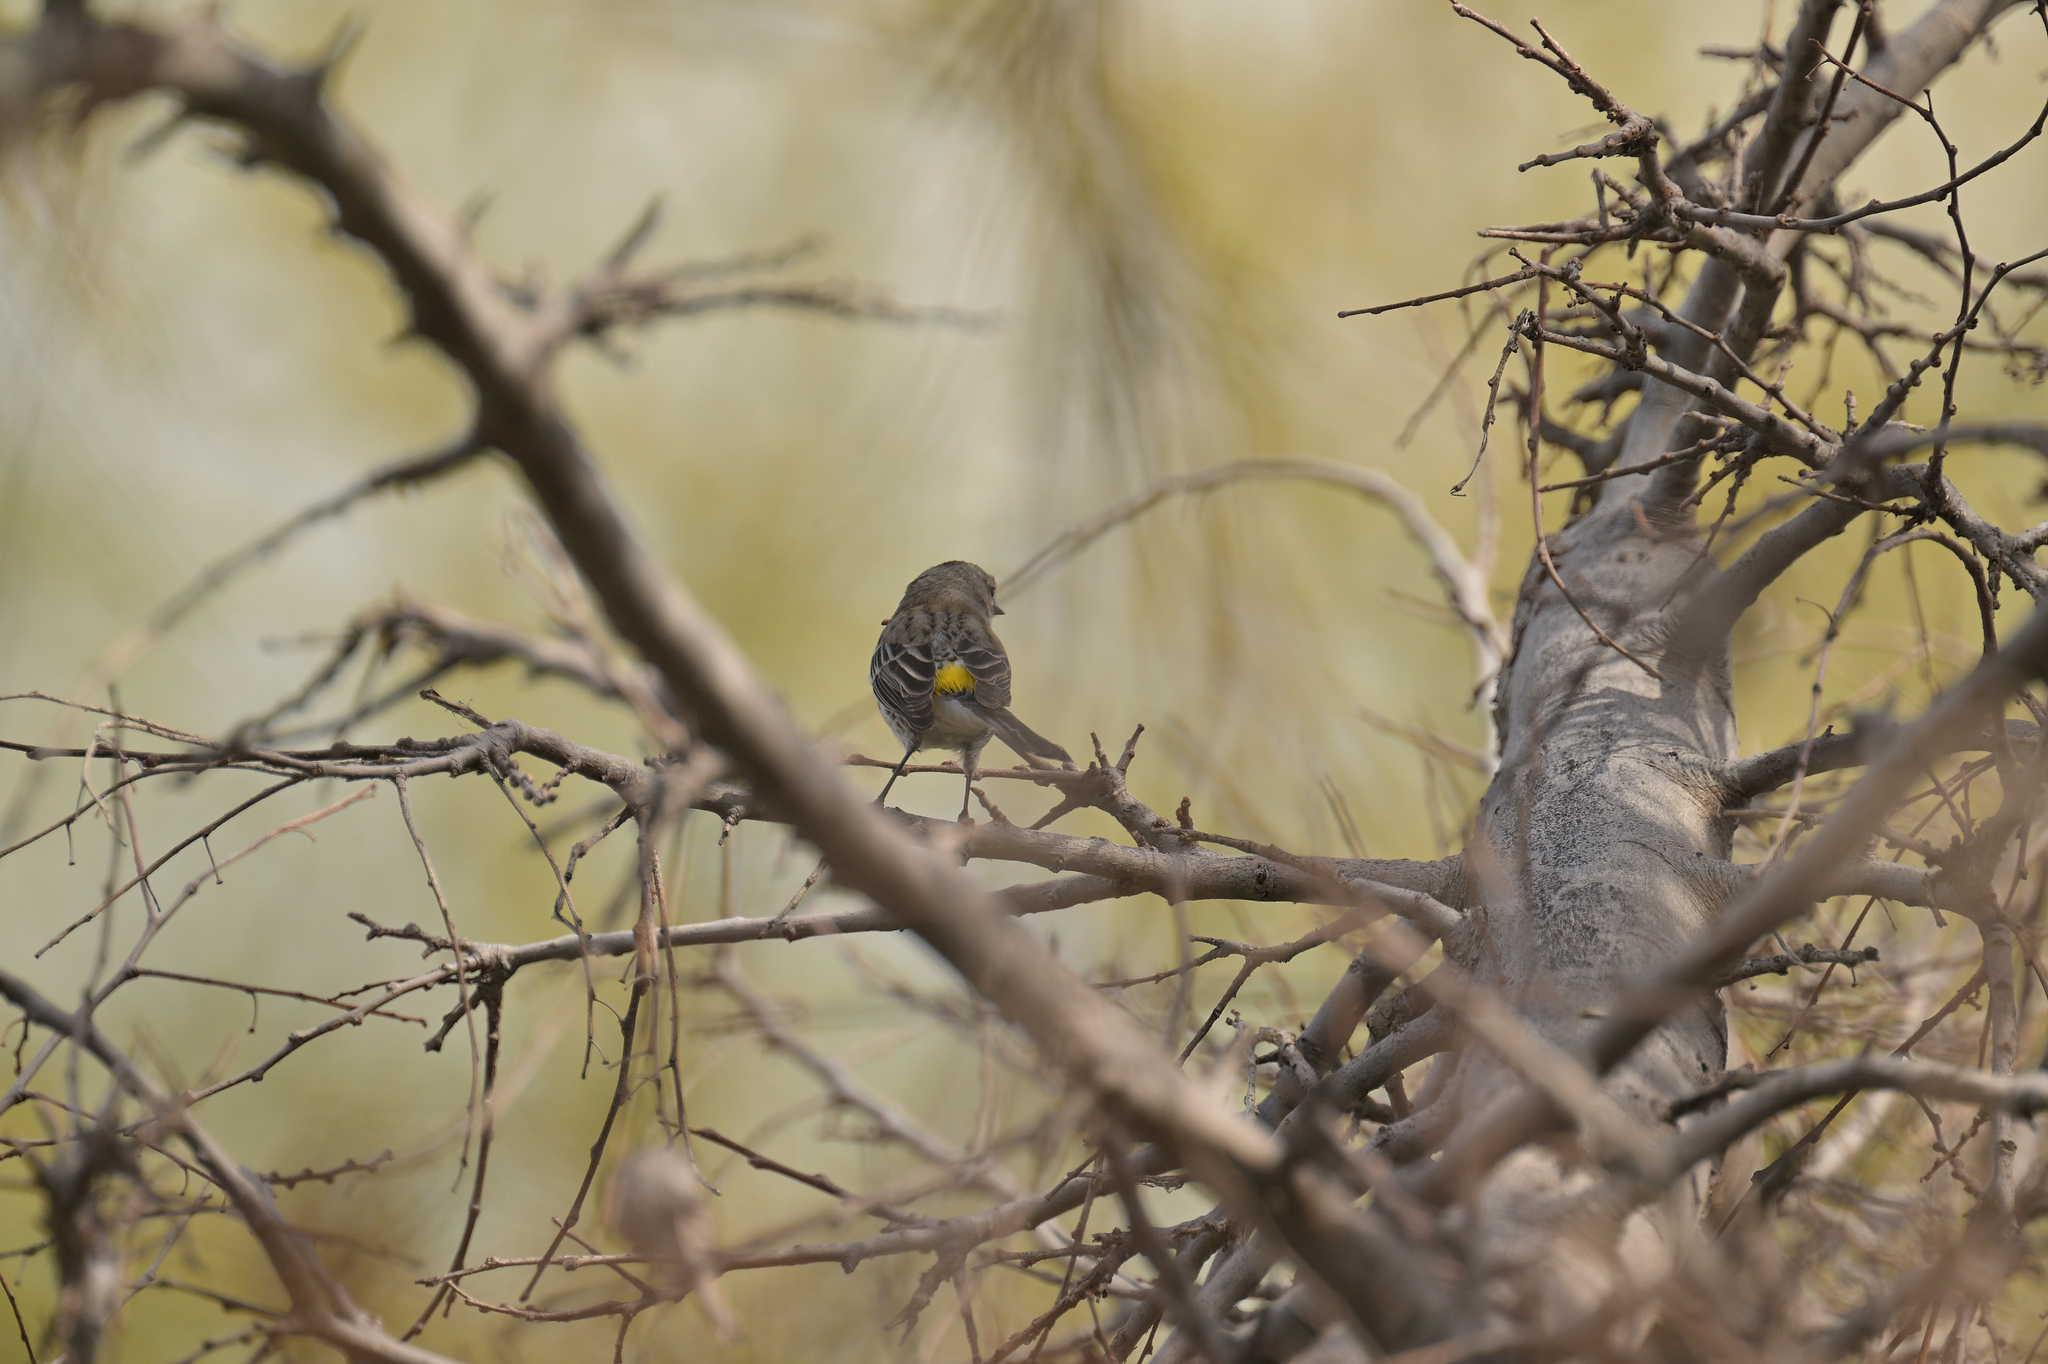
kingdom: Animalia
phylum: Chordata
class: Aves
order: Passeriformes
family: Parulidae
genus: Setophaga
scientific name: Setophaga coronata
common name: Myrtle warbler
